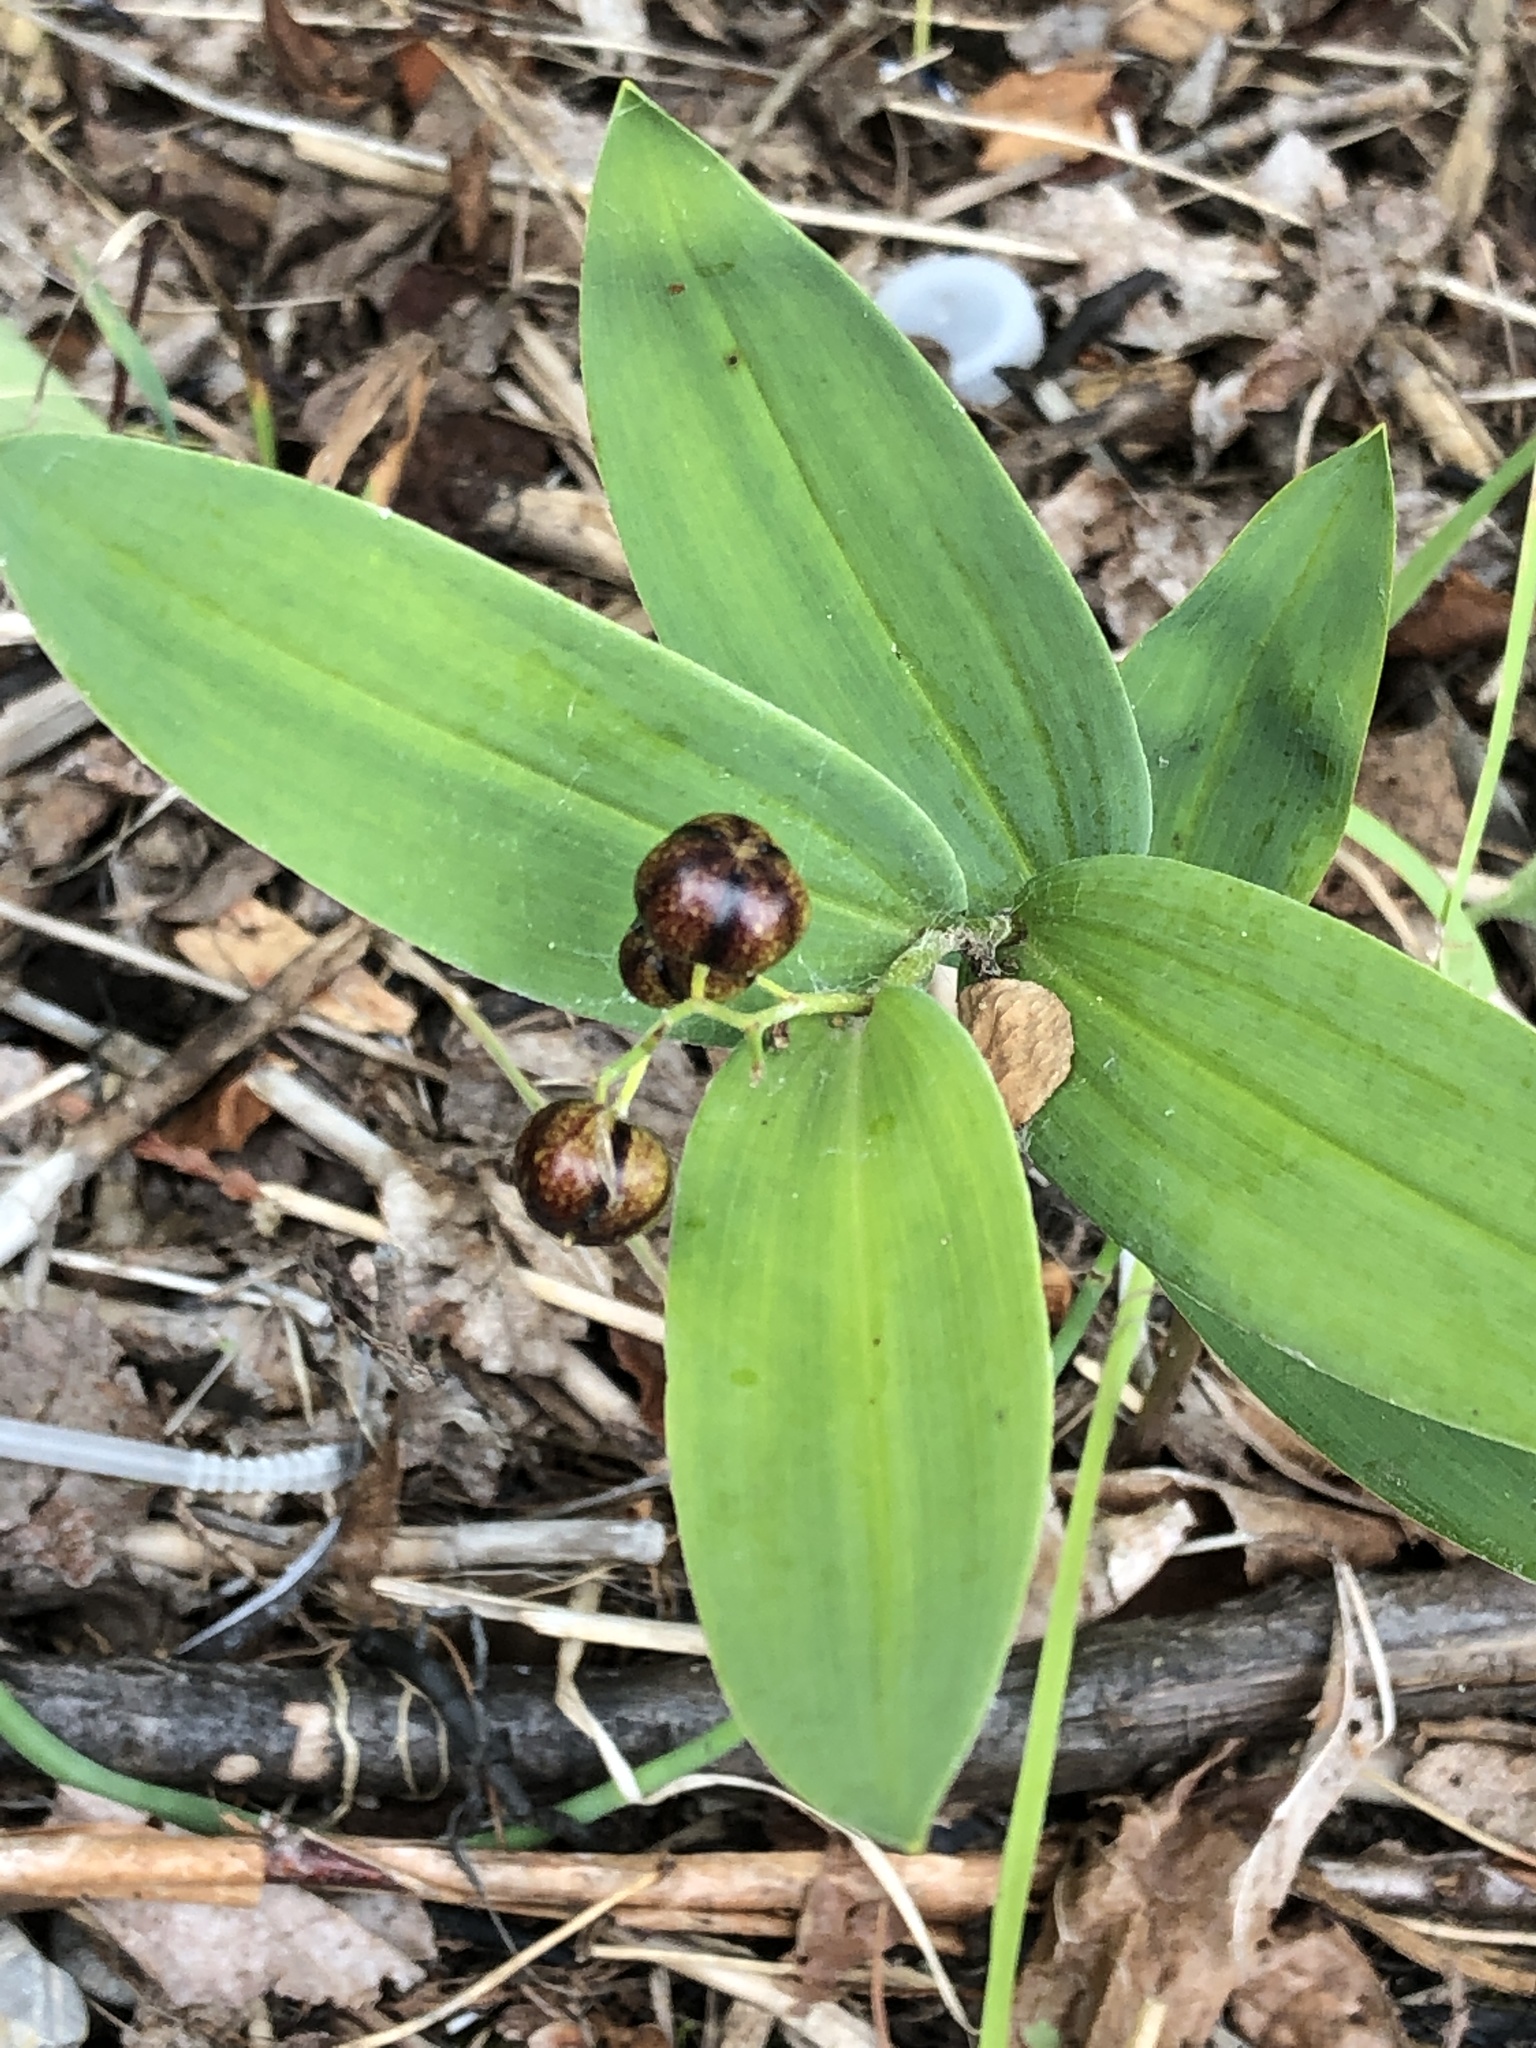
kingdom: Plantae
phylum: Tracheophyta
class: Liliopsida
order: Asparagales
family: Asparagaceae
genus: Maianthemum
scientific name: Maianthemum stellatum
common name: Little false solomon's seal
